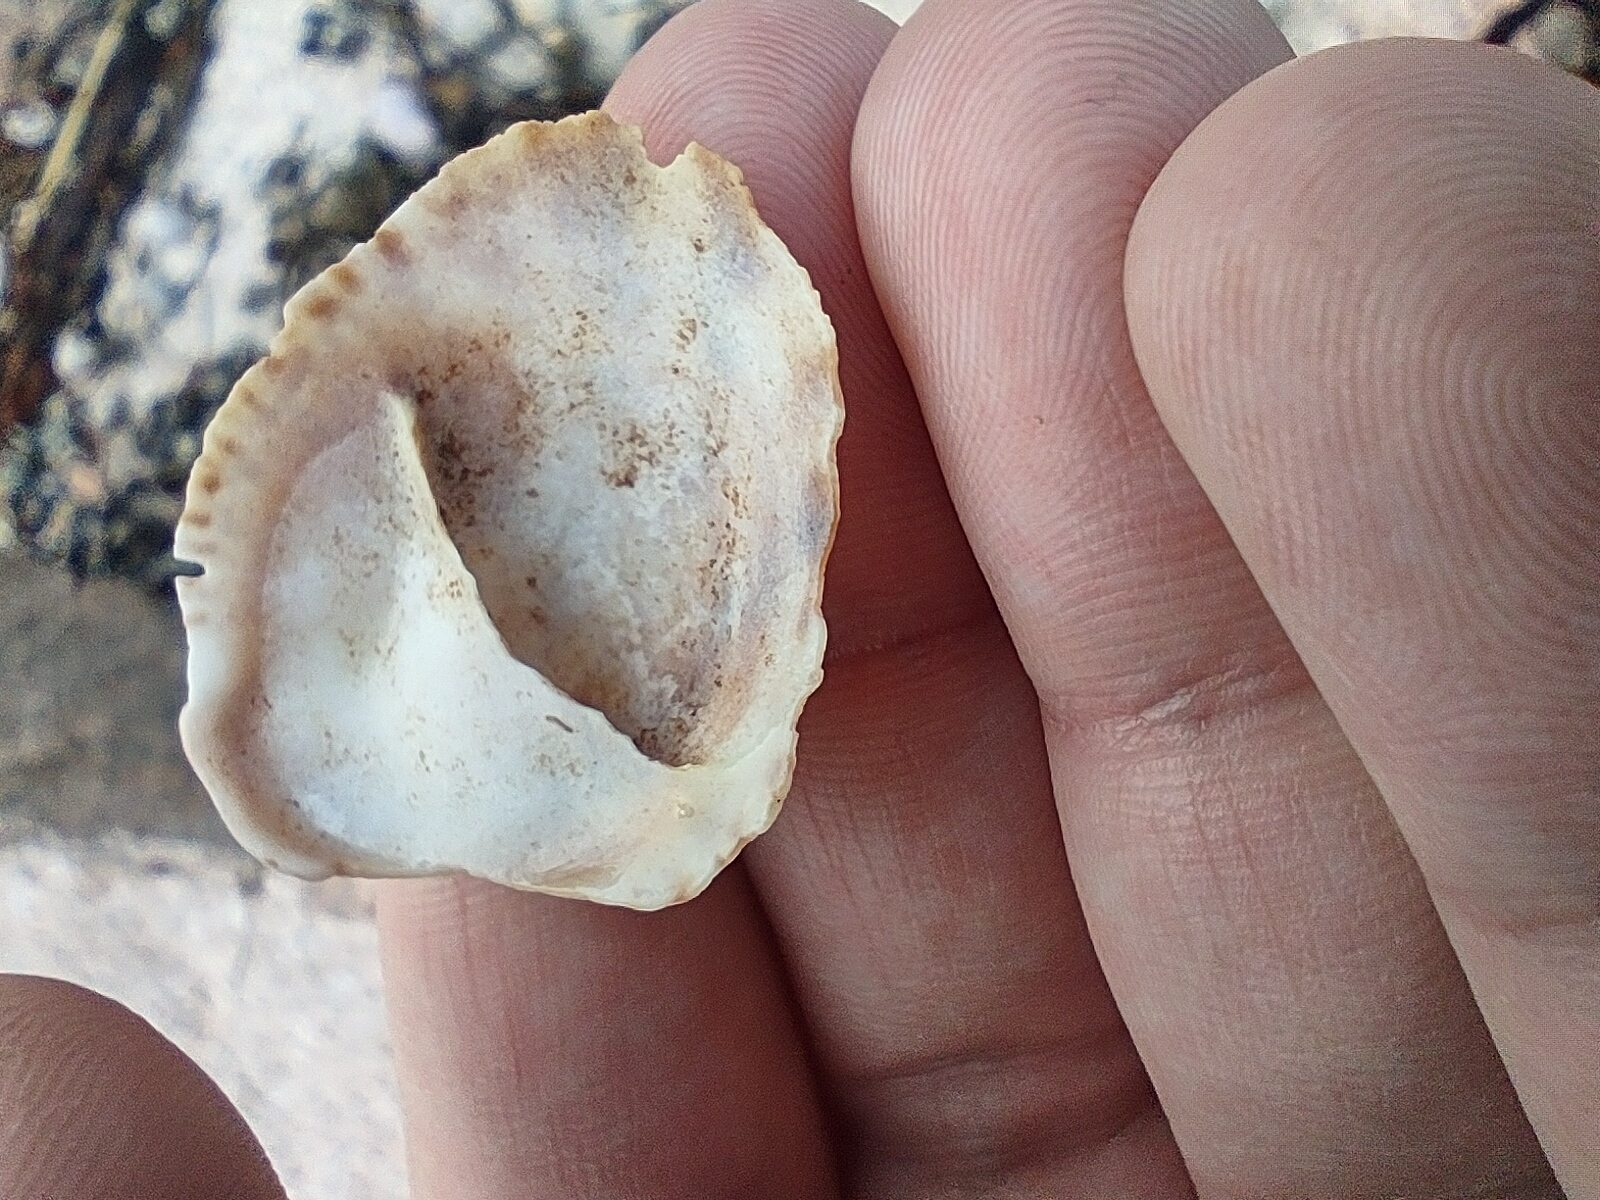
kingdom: Animalia
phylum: Mollusca
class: Gastropoda
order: Littorinimorpha
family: Calyptraeidae
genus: Crepidula
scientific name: Crepidula fornicata
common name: Slipper limpet
